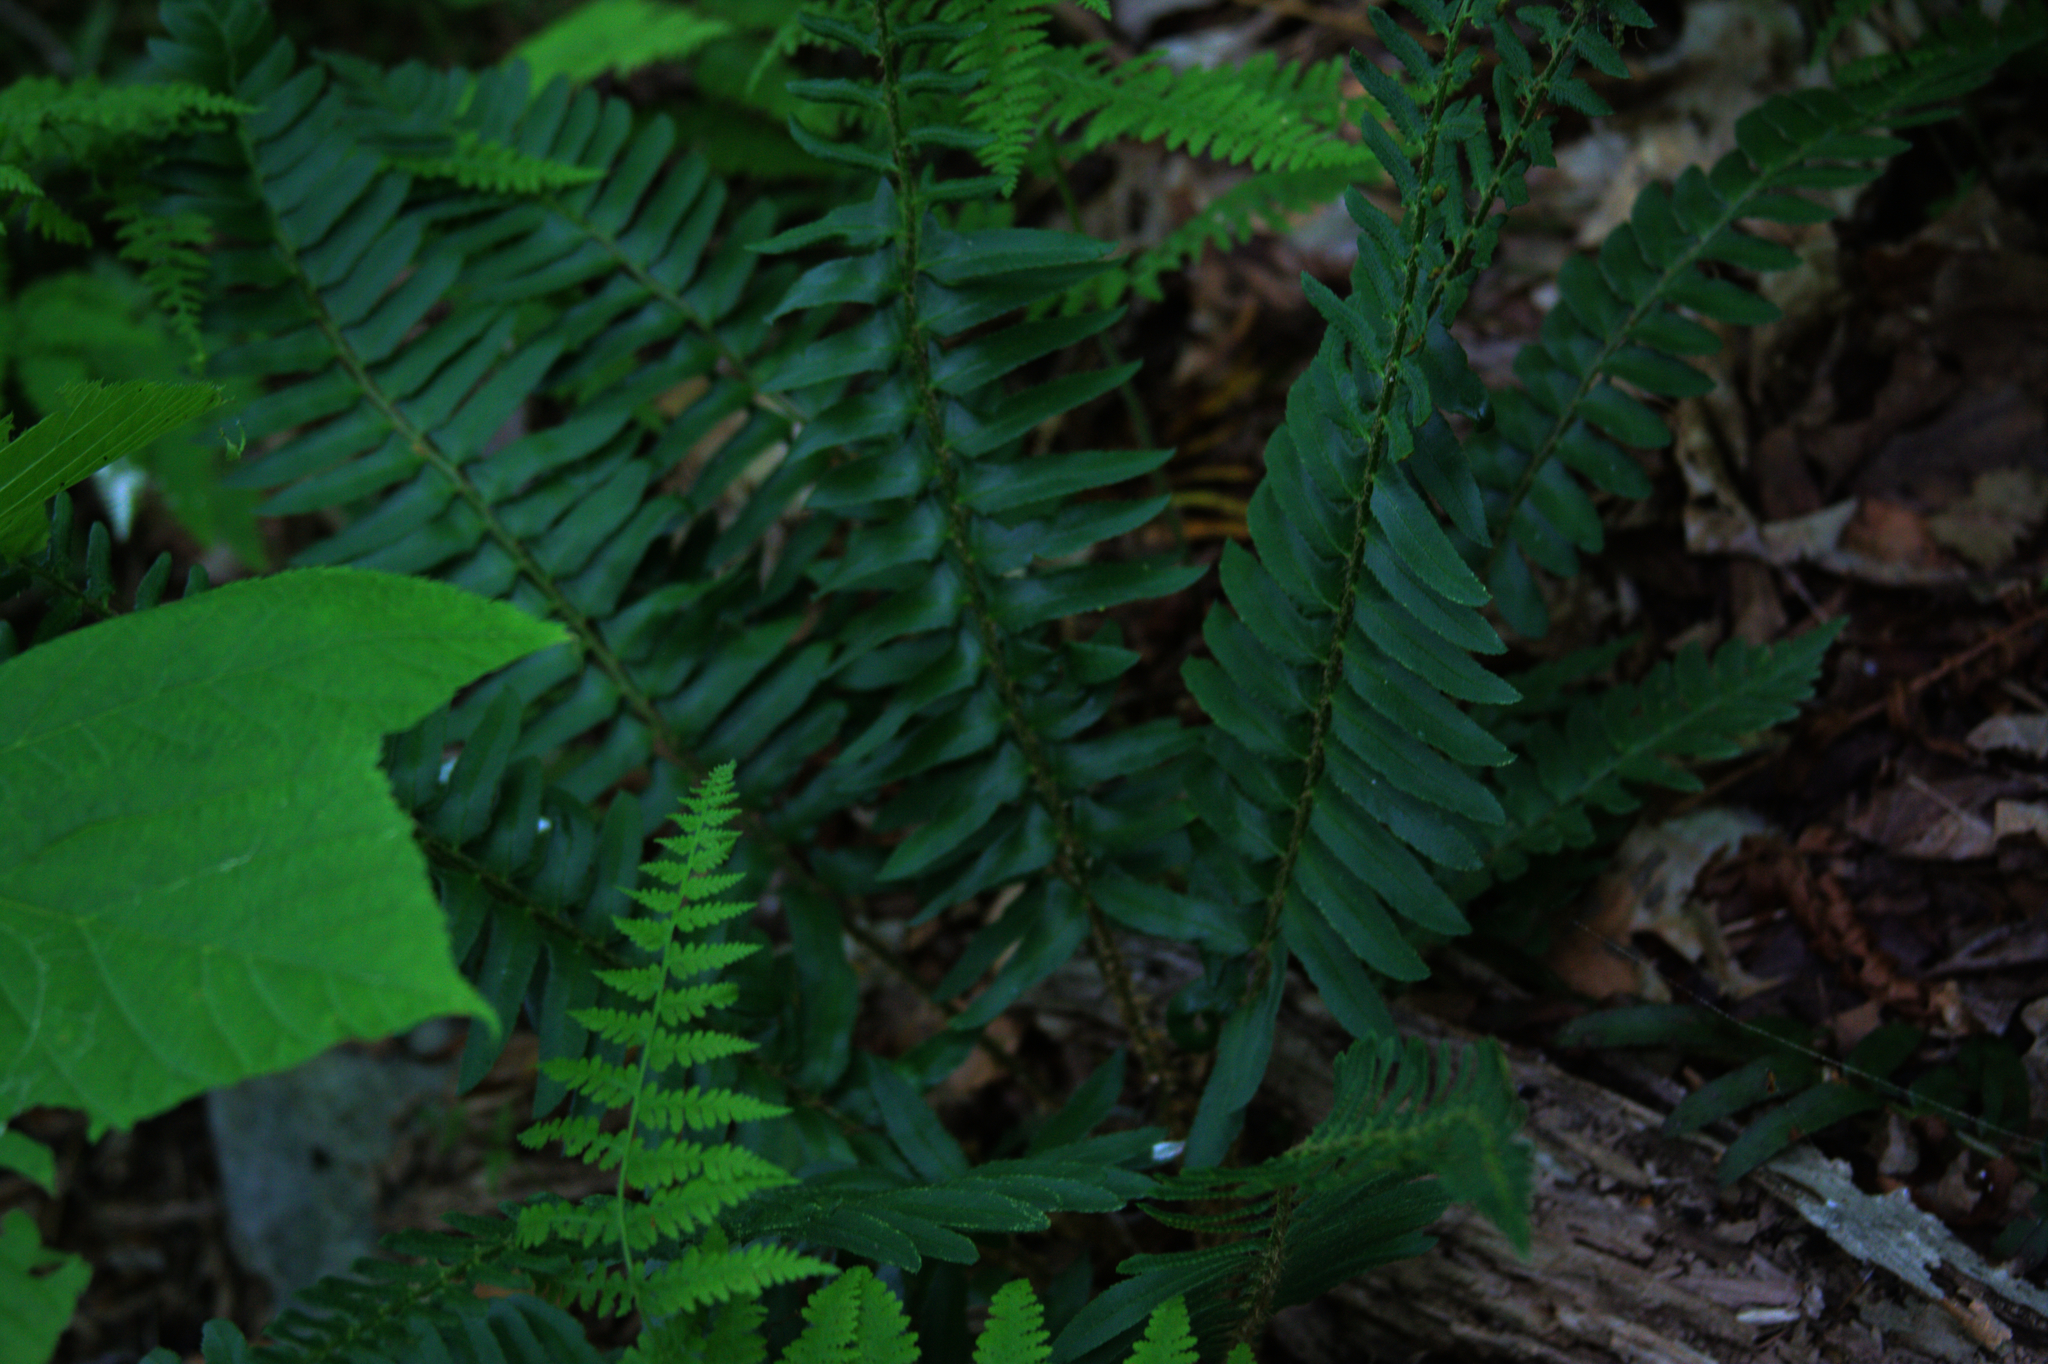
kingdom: Plantae
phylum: Tracheophyta
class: Polypodiopsida
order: Polypodiales
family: Dryopteridaceae
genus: Polystichum
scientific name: Polystichum acrostichoides
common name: Christmas fern
